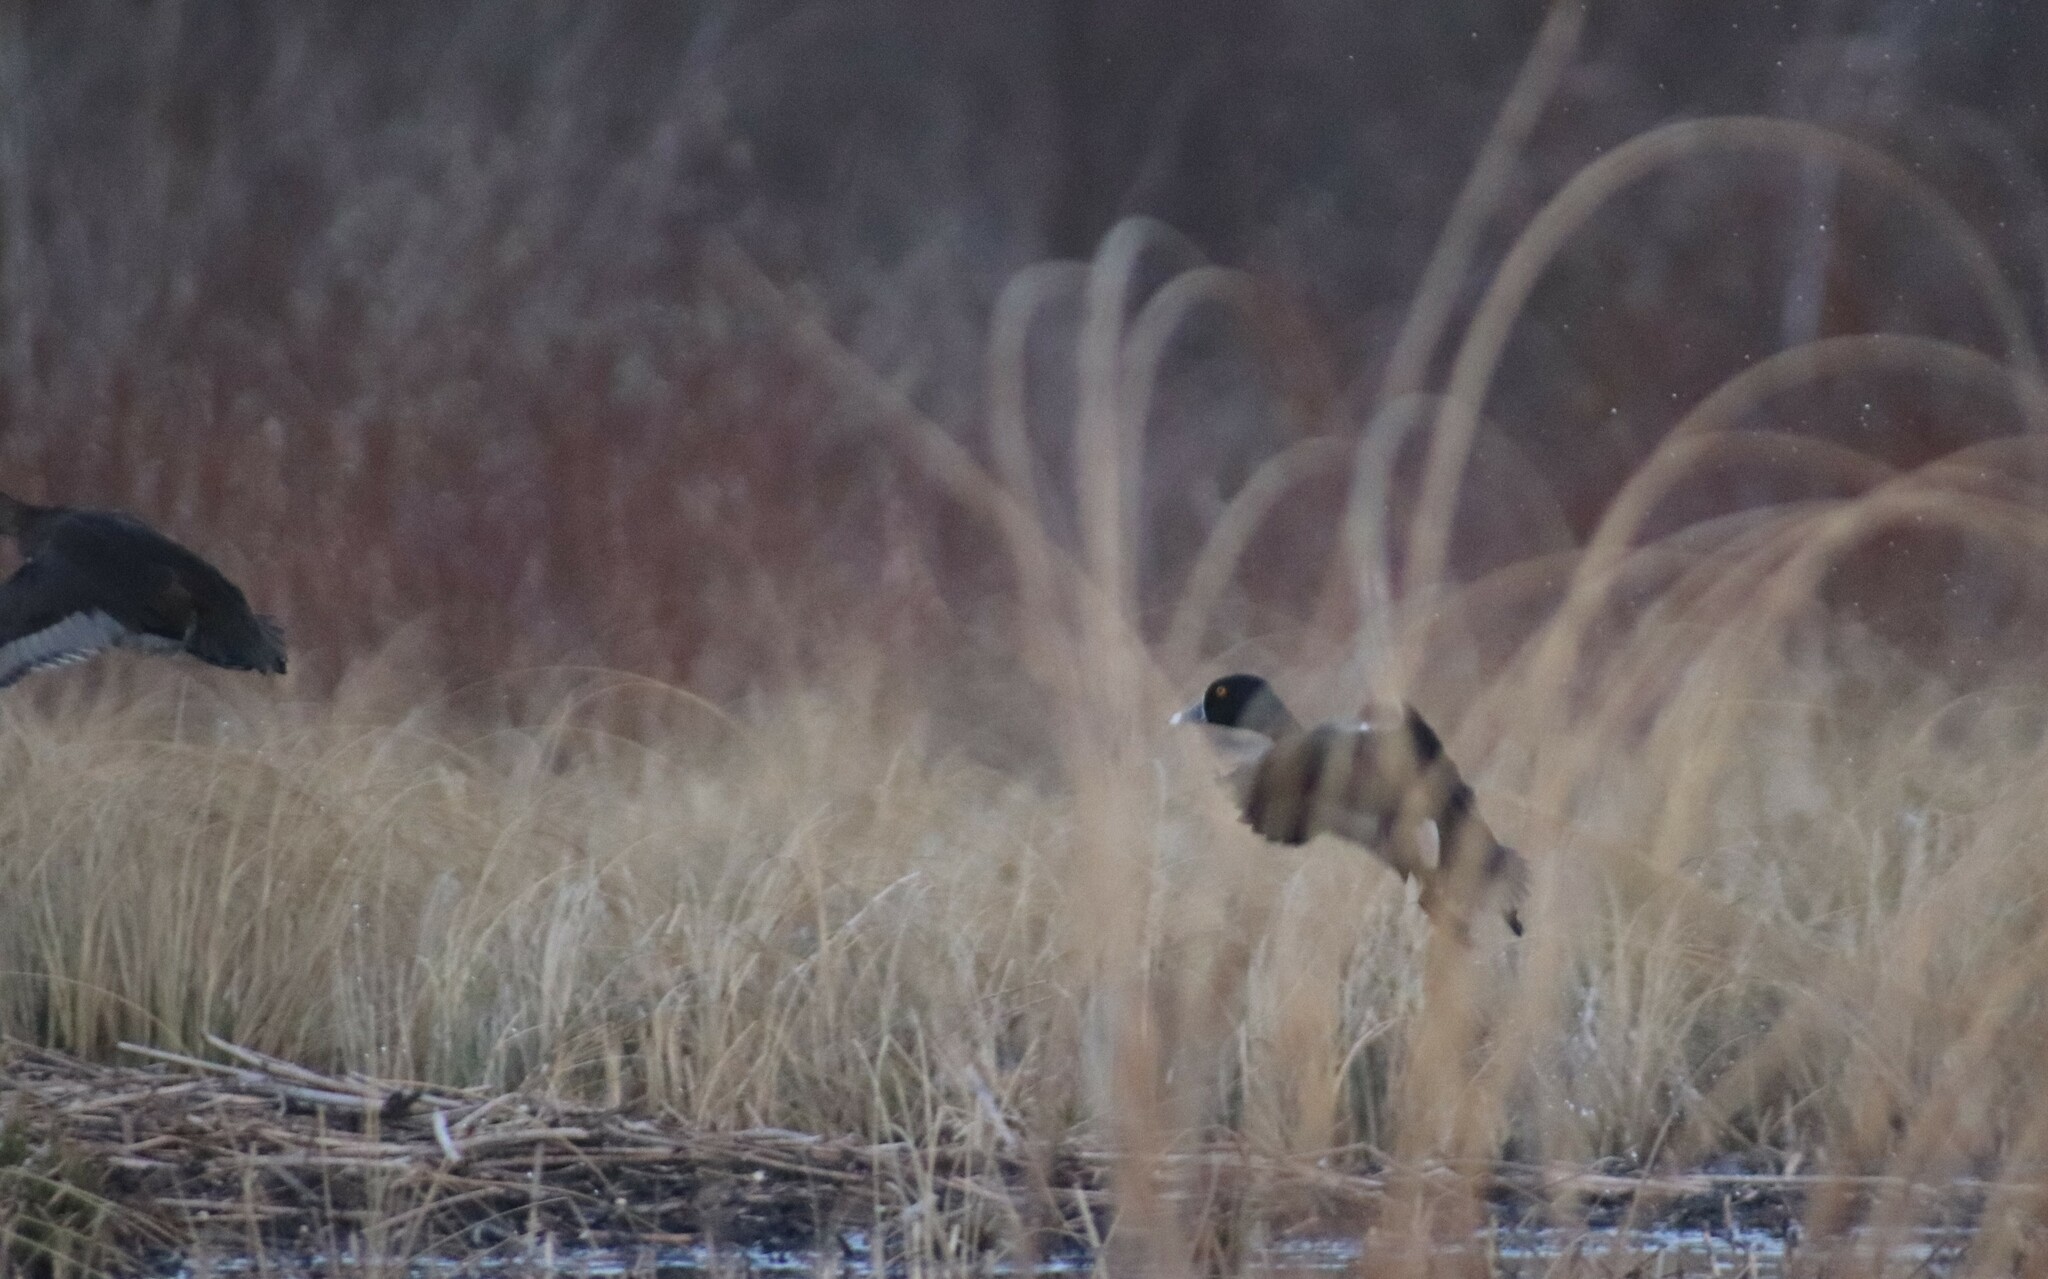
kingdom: Animalia
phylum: Chordata
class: Aves
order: Anseriformes
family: Anatidae
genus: Aythya
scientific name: Aythya collaris
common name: Ring-necked duck
